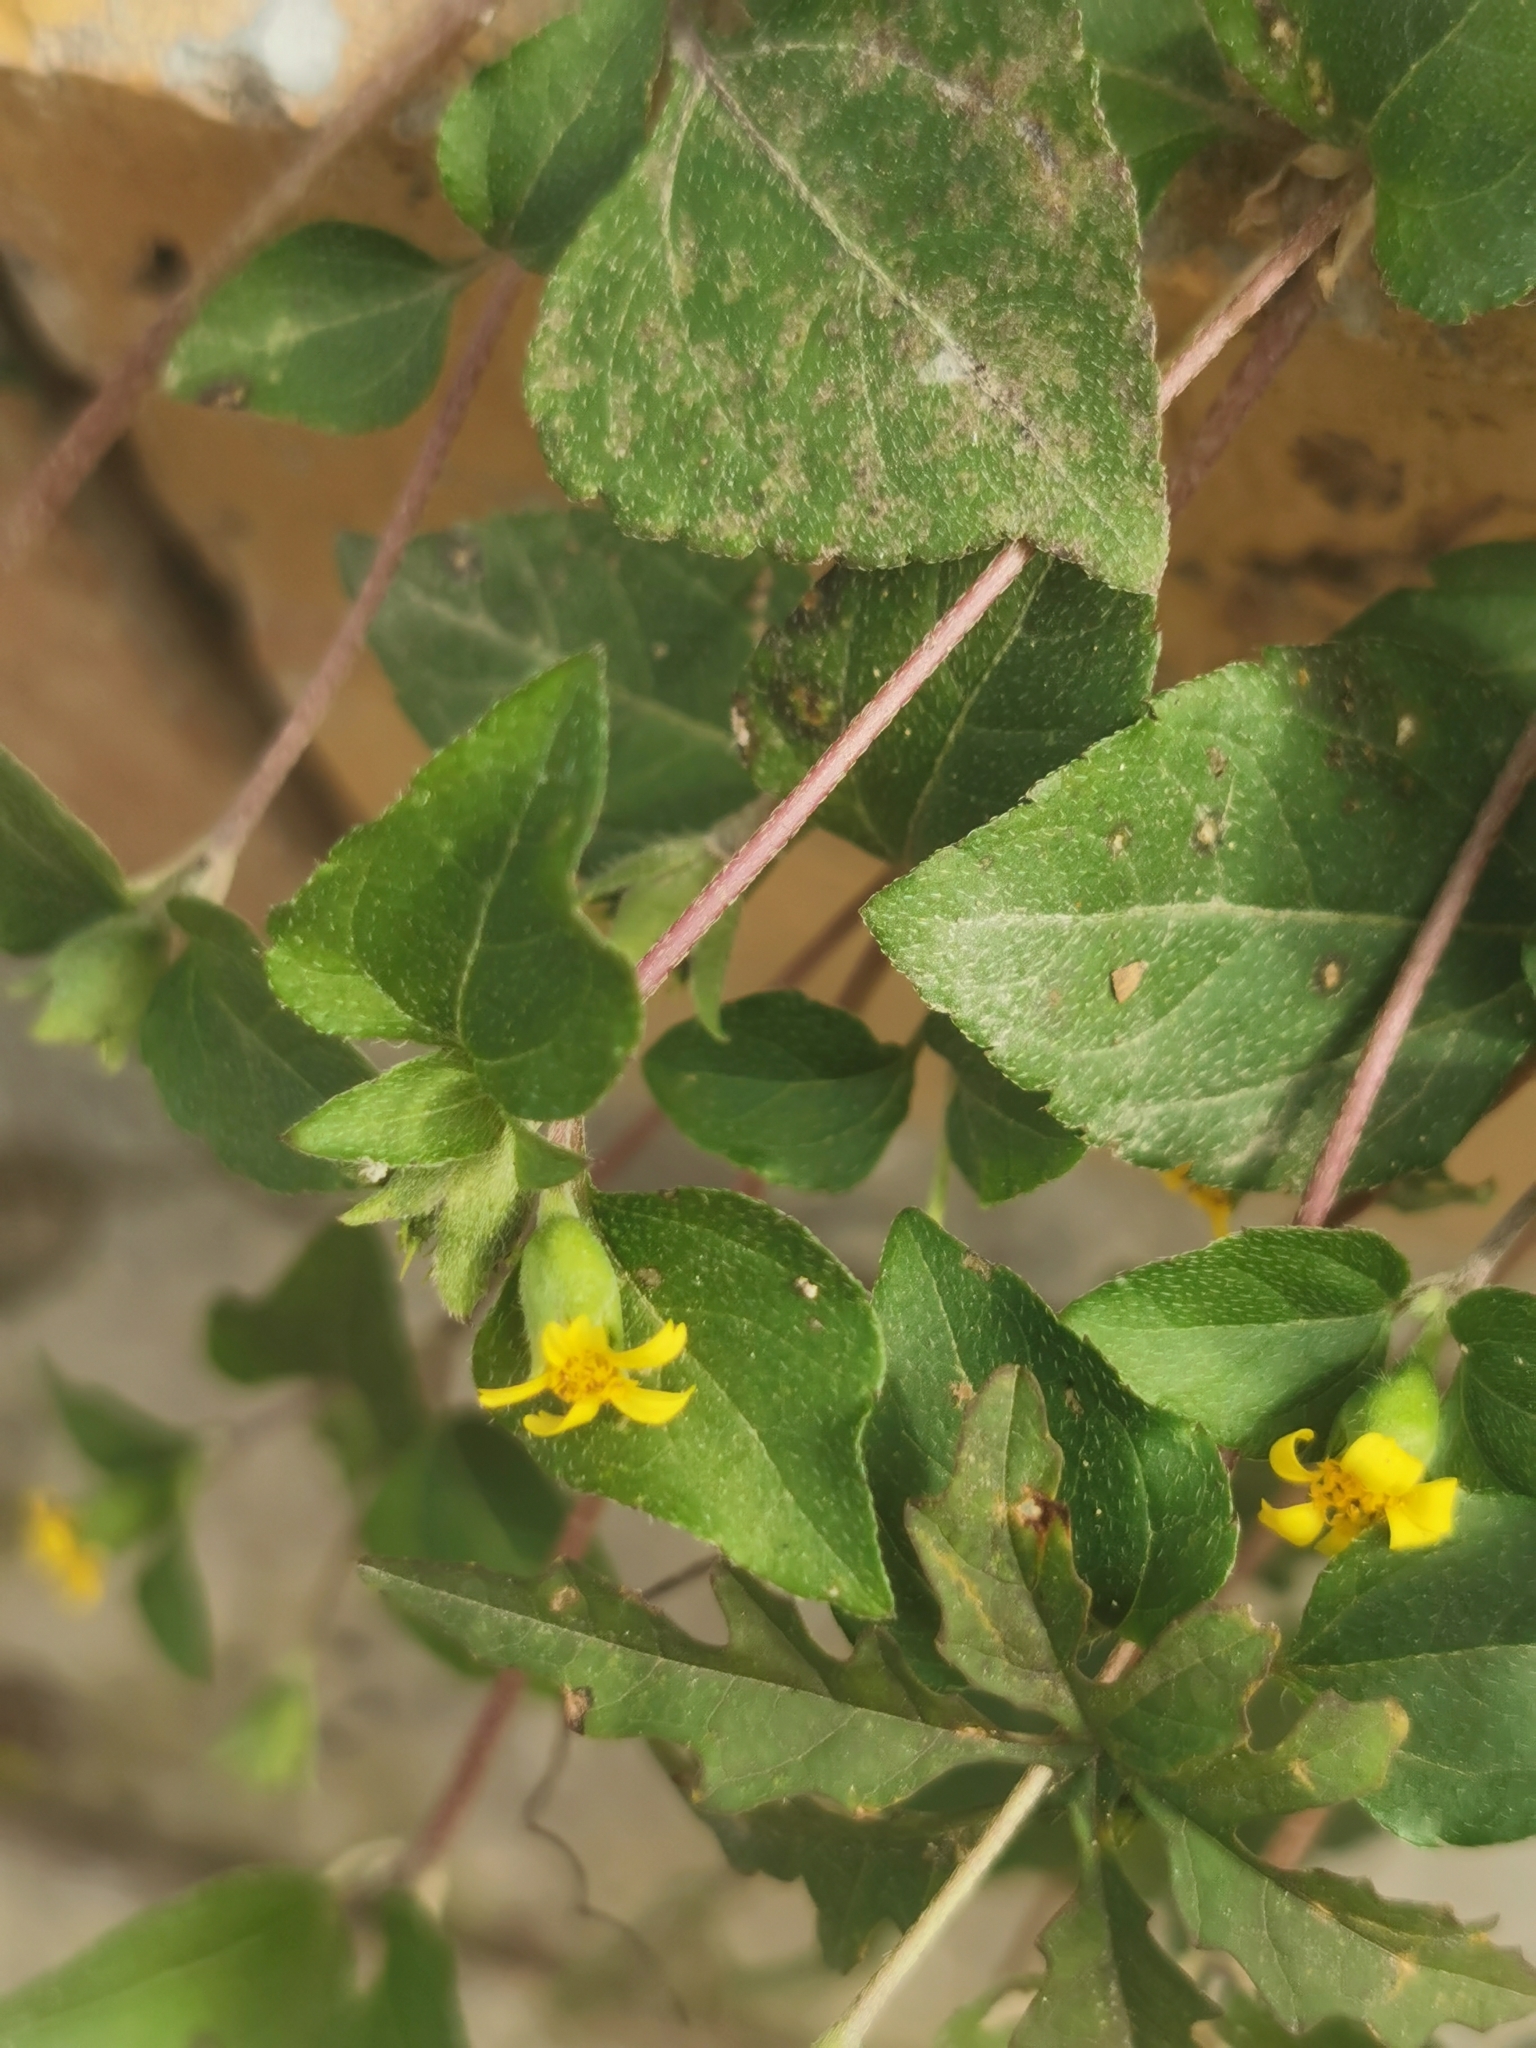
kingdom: Plantae
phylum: Tracheophyta
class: Magnoliopsida
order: Asterales
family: Asteraceae
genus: Calyptocarpus
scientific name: Calyptocarpus vialis
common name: Straggler daisy
